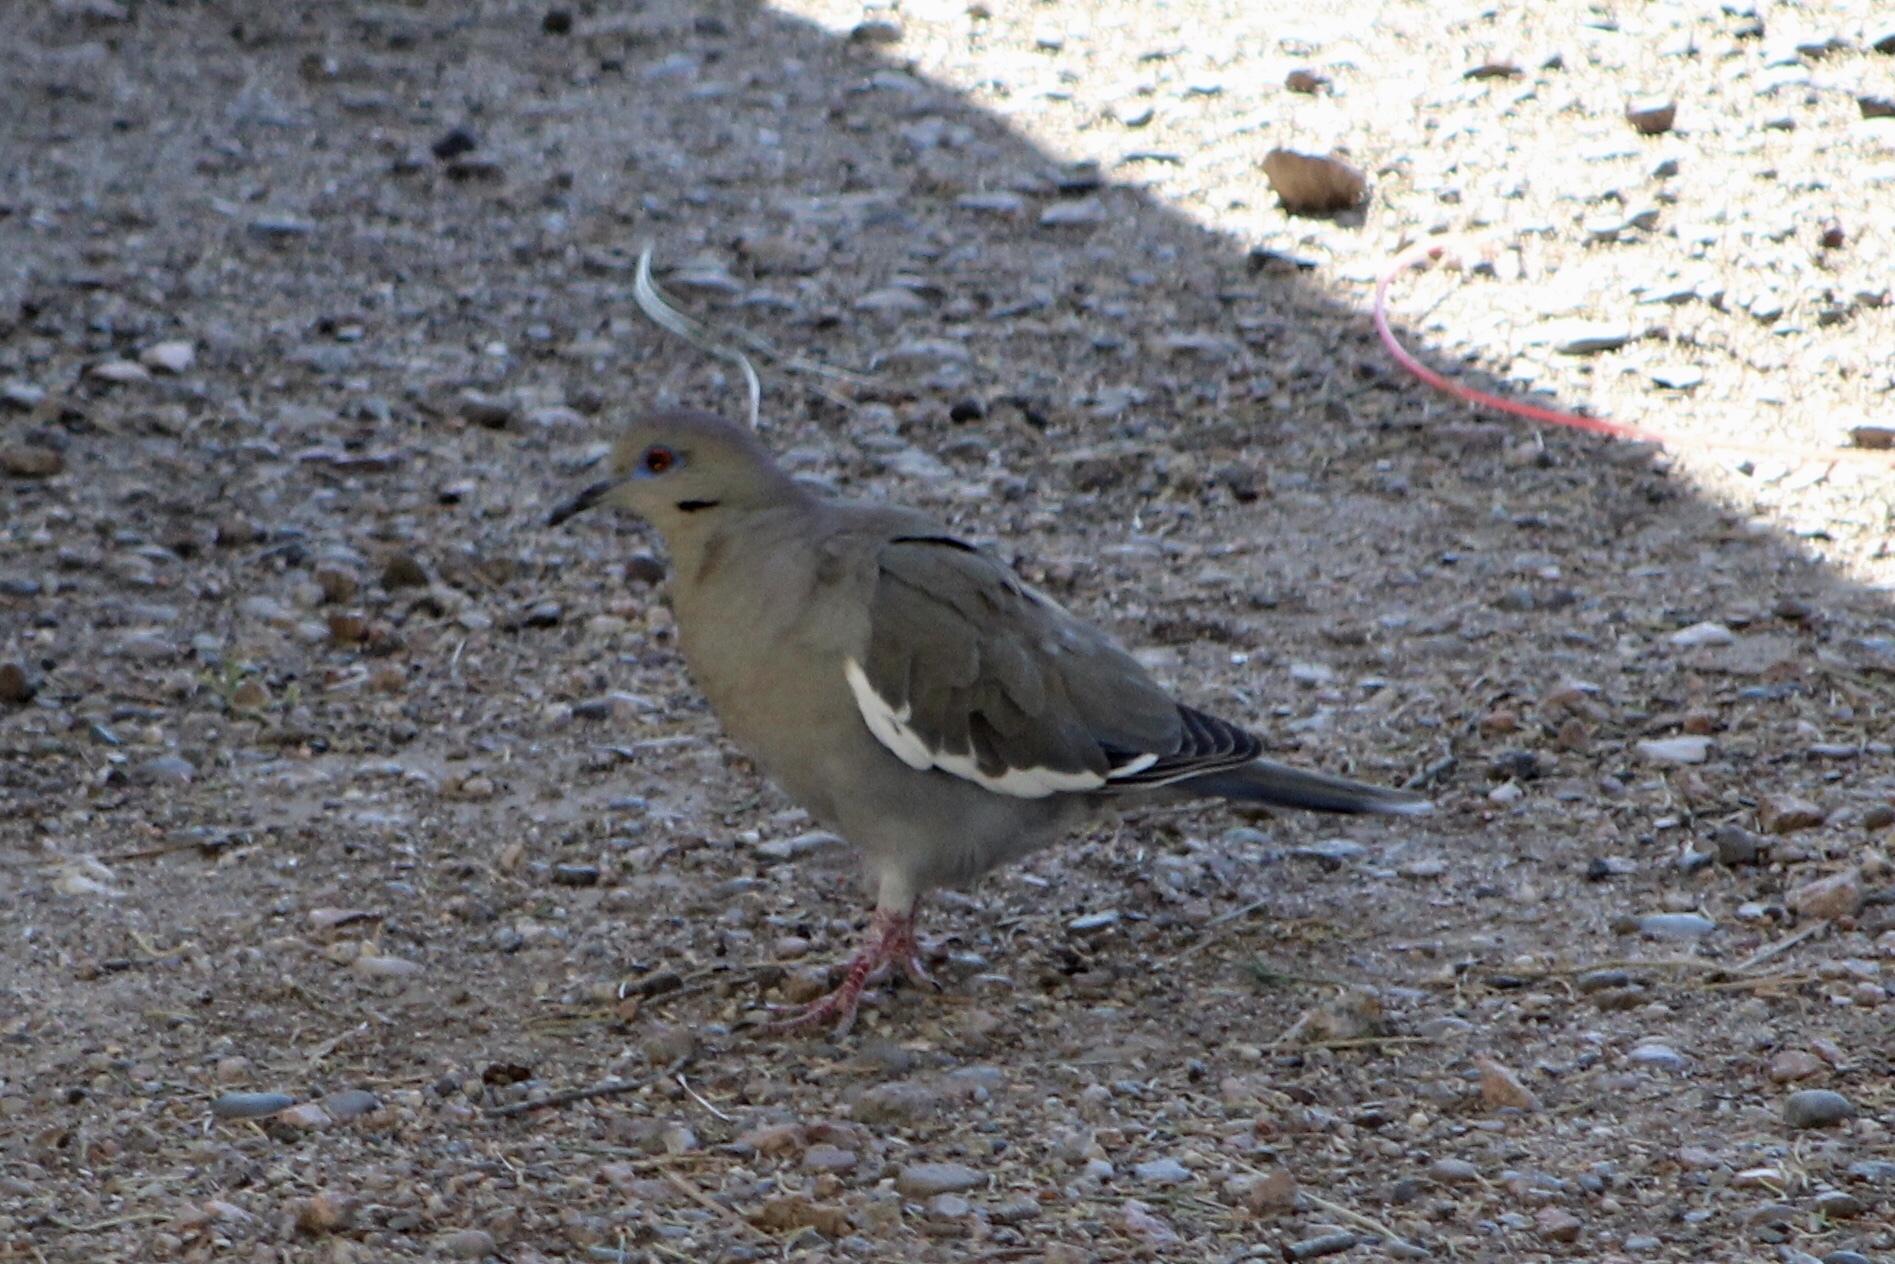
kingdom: Animalia
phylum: Chordata
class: Aves
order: Columbiformes
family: Columbidae
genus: Zenaida
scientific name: Zenaida asiatica
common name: White-winged dove
